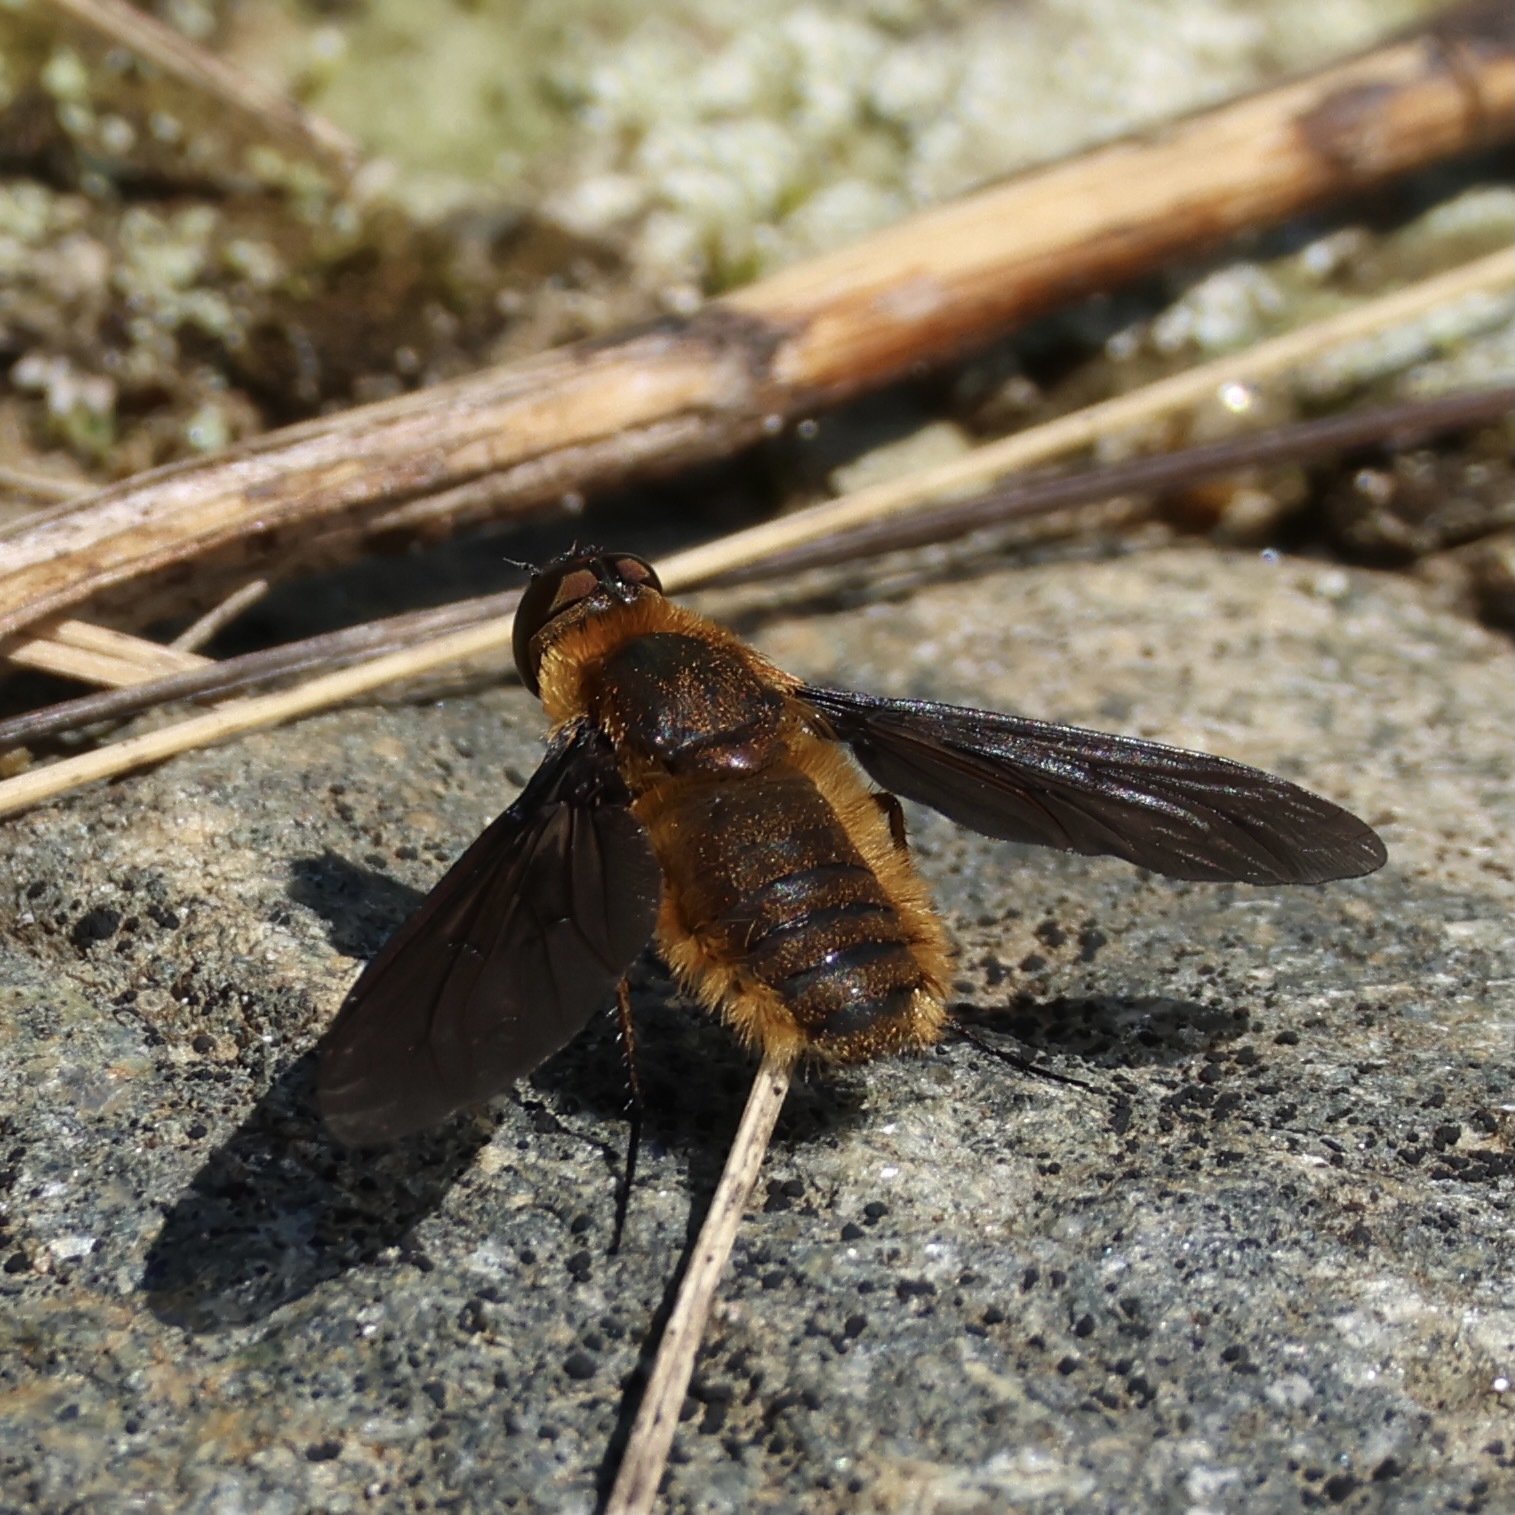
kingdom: Animalia
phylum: Arthropoda
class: Insecta
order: Diptera
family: Bombyliidae
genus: Poecilanthrax
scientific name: Poecilanthrax tegminipennis
